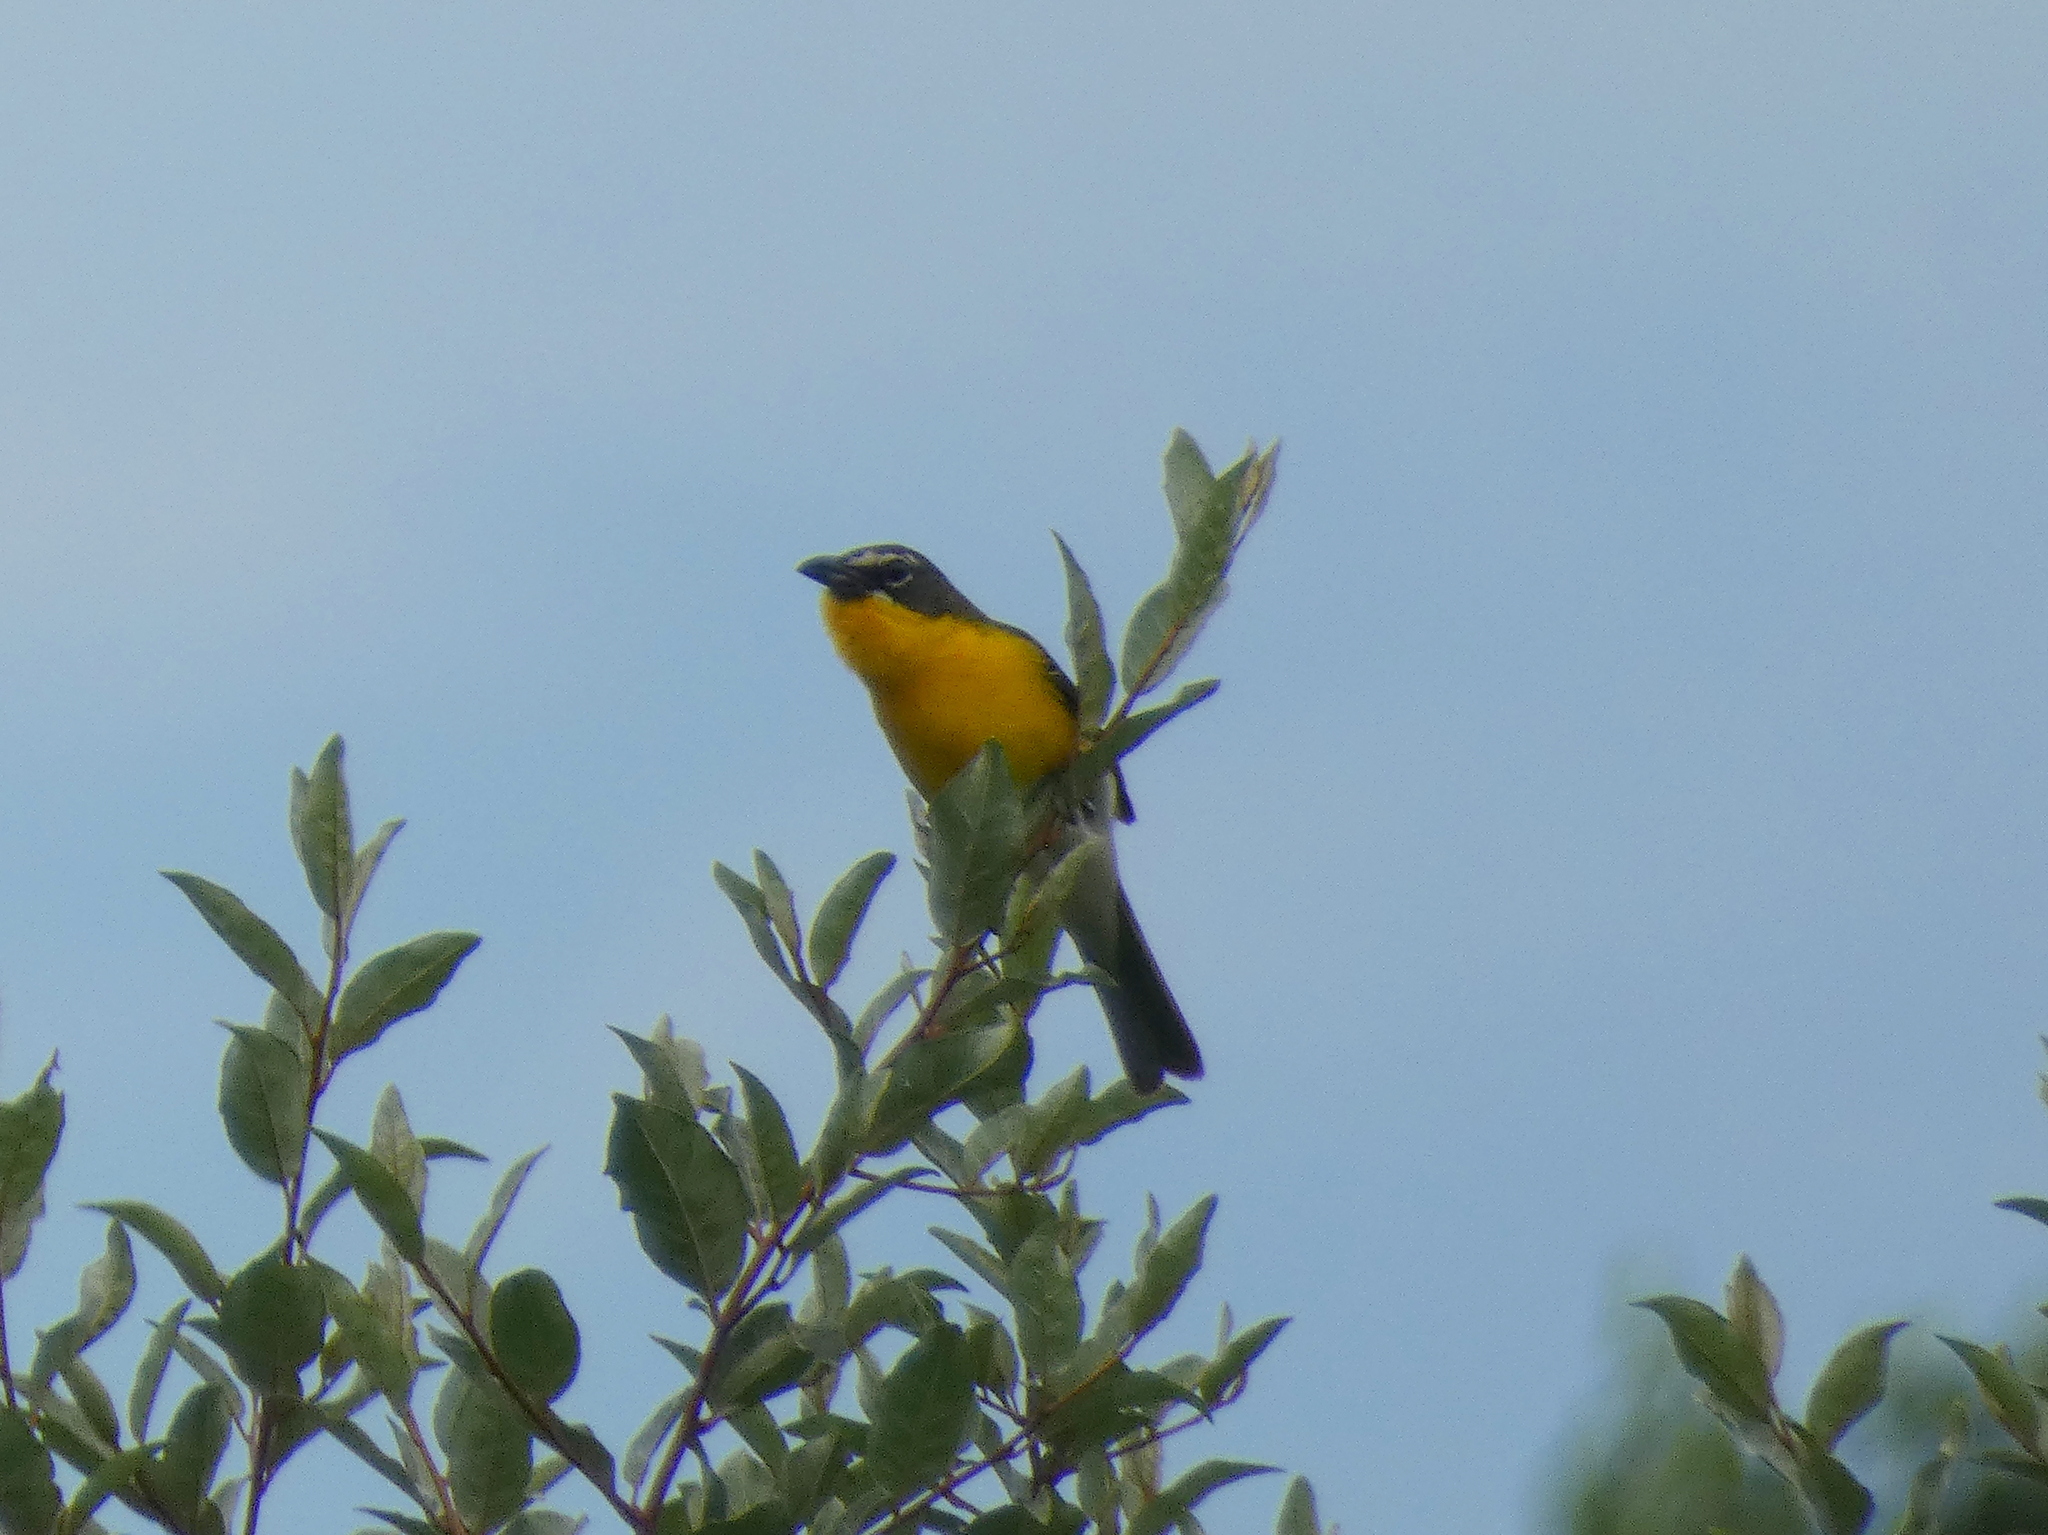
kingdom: Animalia
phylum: Chordata
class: Aves
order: Passeriformes
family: Parulidae
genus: Icteria
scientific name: Icteria virens
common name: Yellow-breasted chat
